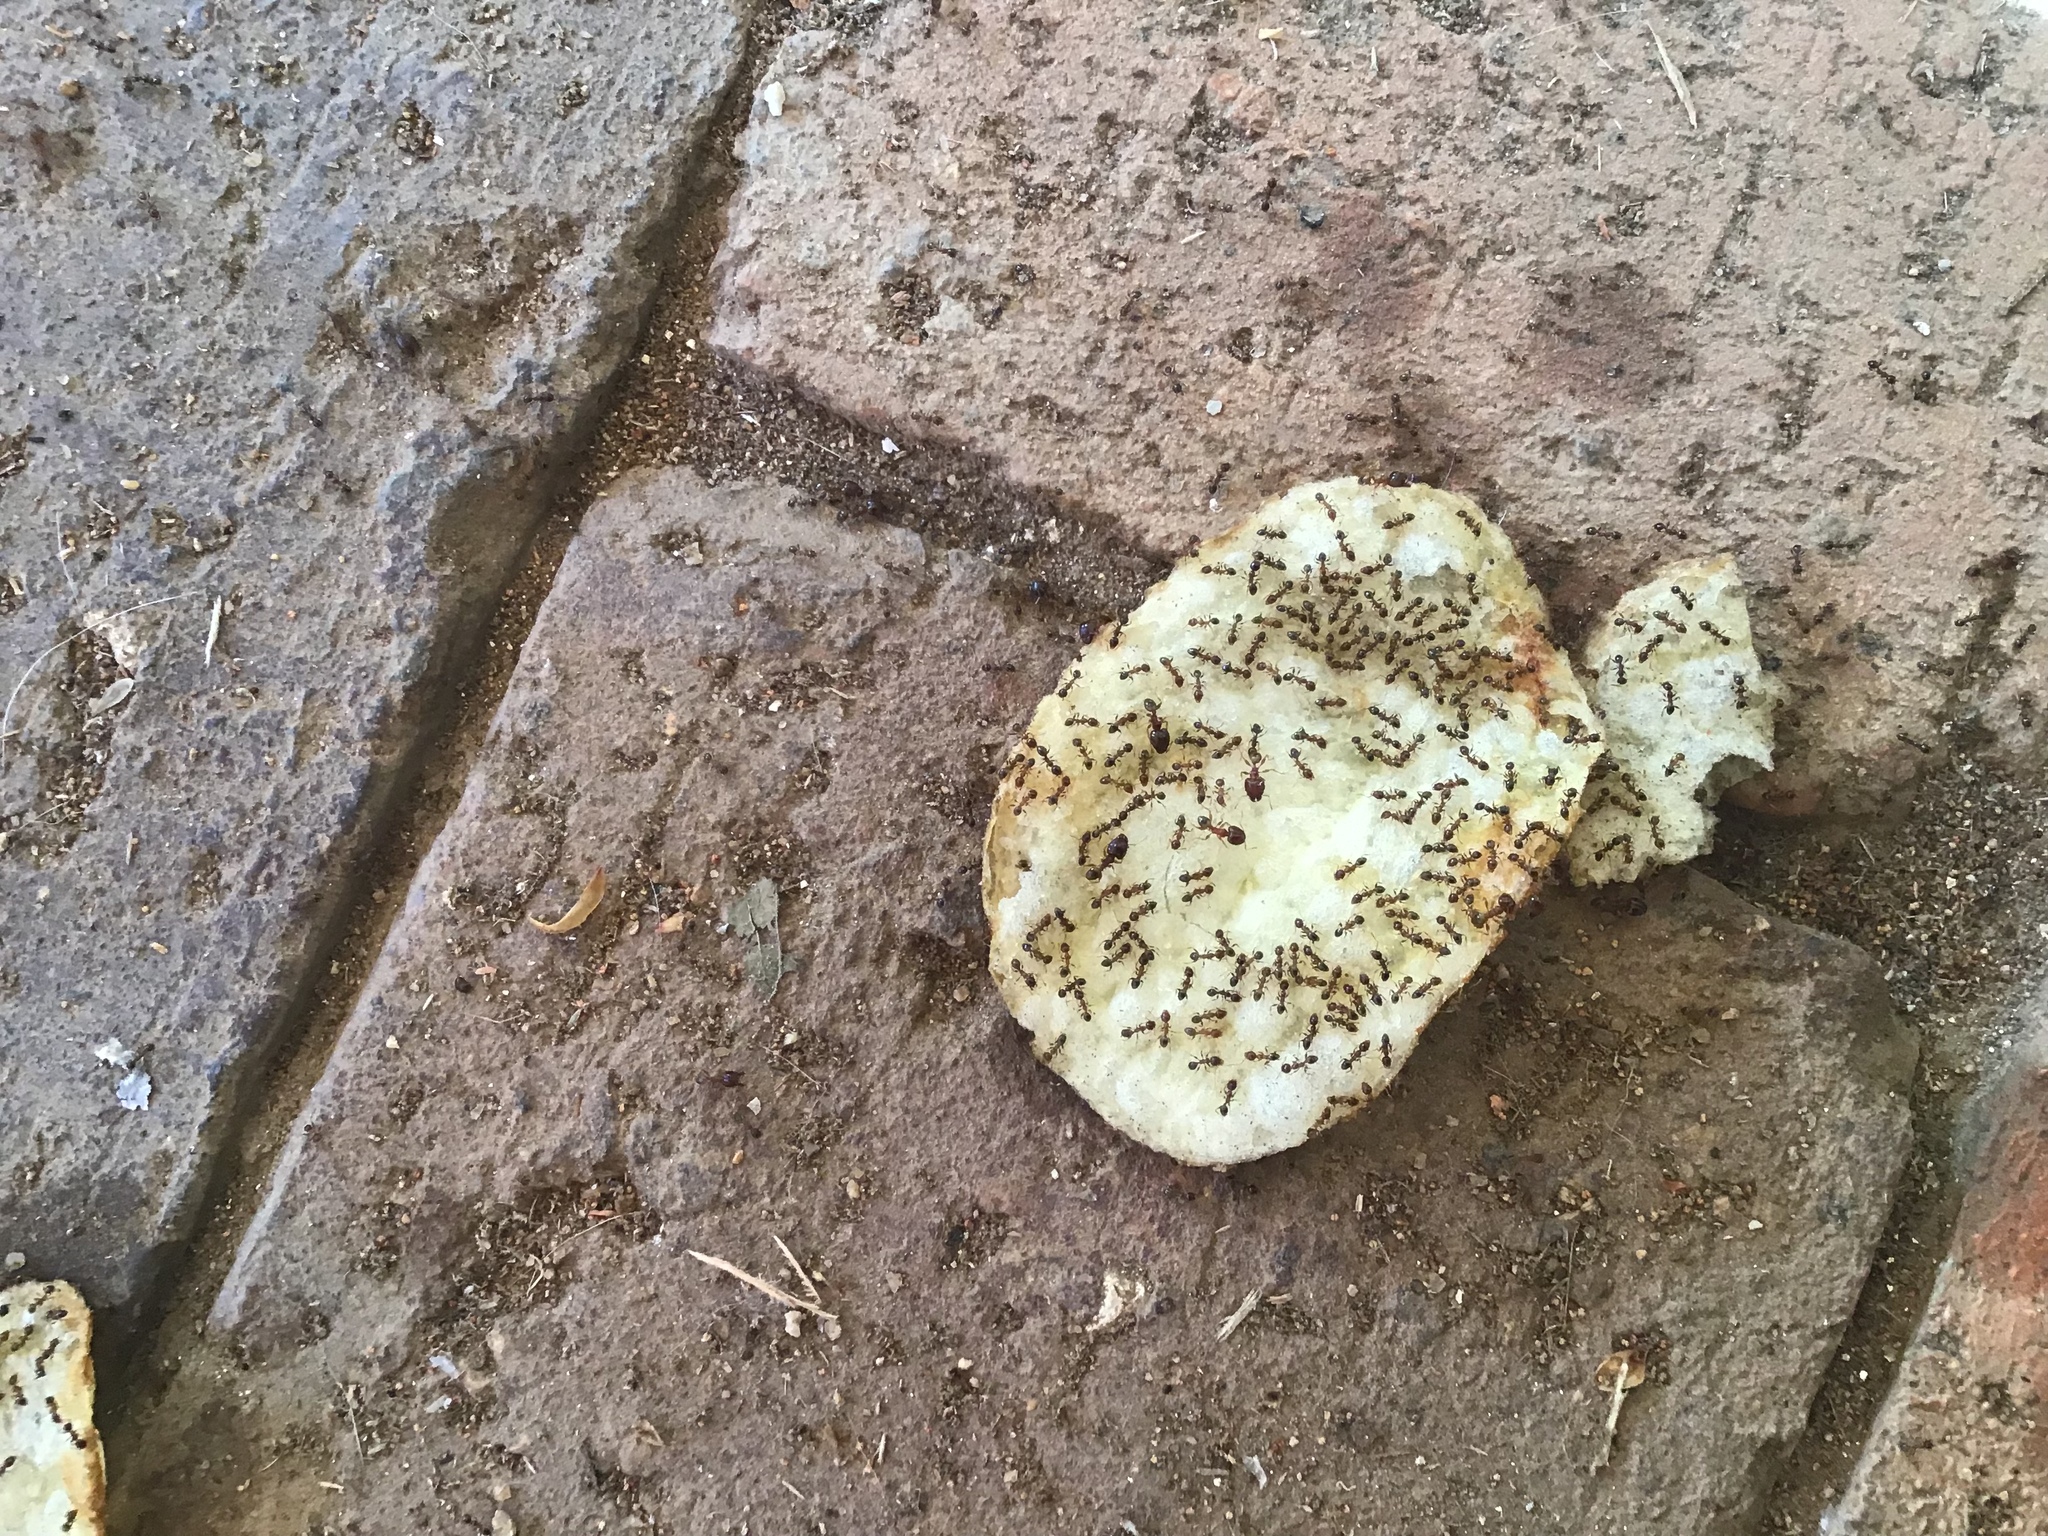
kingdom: Animalia
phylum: Arthropoda
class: Insecta
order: Hymenoptera
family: Formicidae
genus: Pheidole
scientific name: Pheidole megacephala
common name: Bigheaded ant
